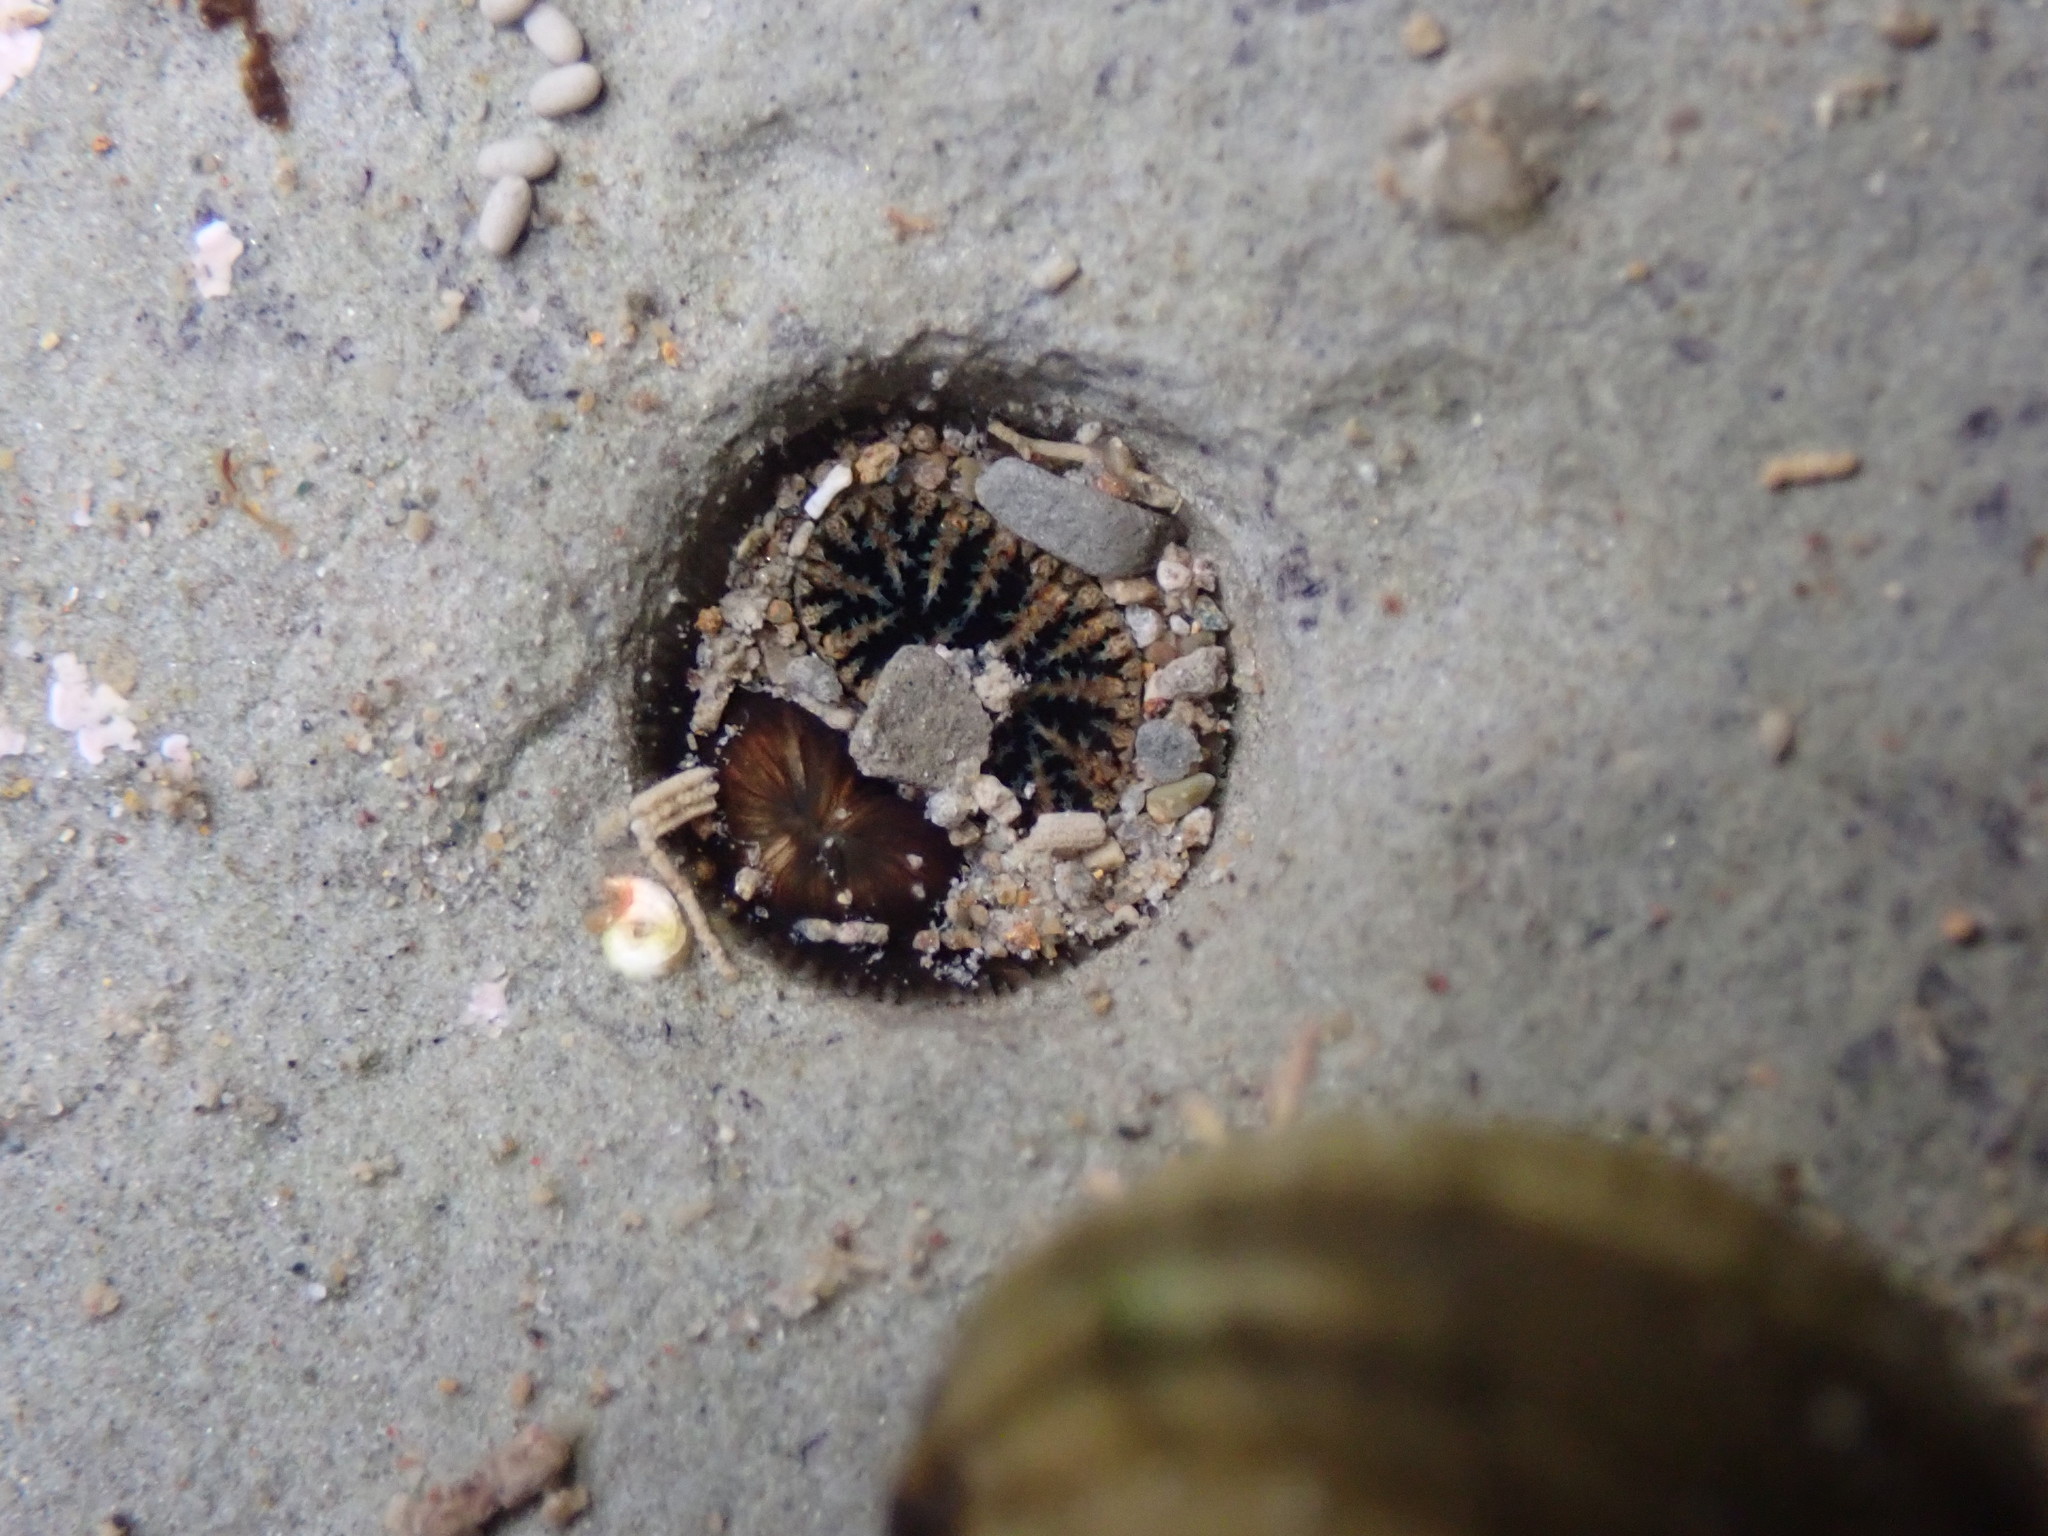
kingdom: Animalia
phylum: Mollusca
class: Bivalvia
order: Myida
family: Pholadidae
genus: Pholadidea
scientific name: Pholadidea tridens
